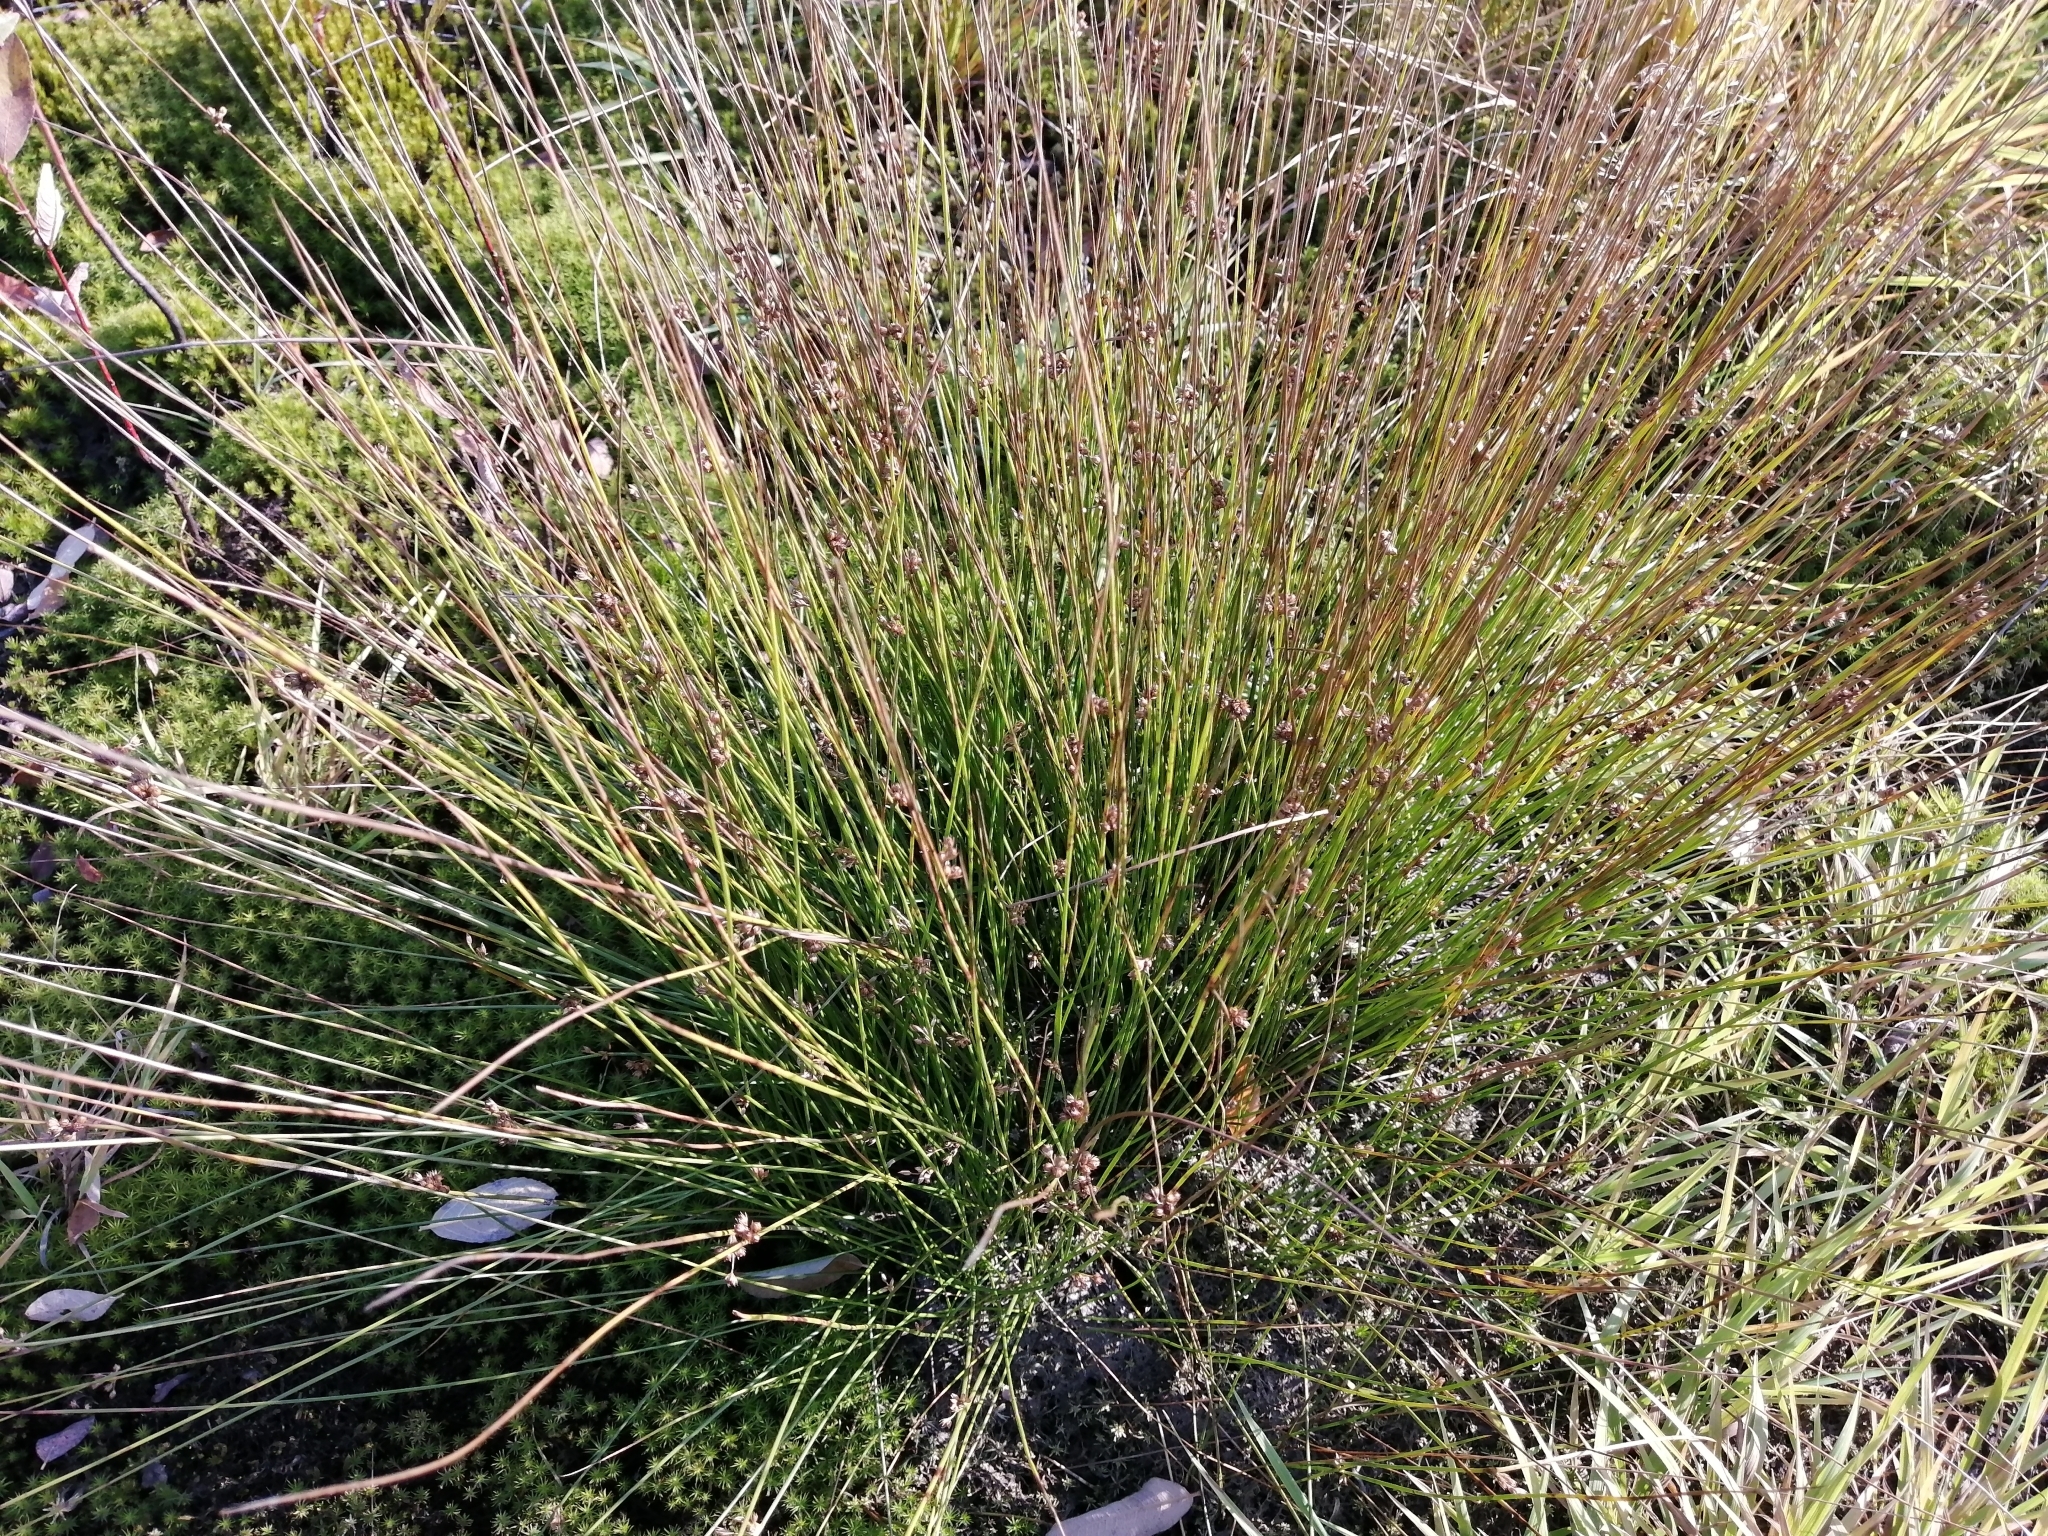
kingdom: Plantae
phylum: Tracheophyta
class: Liliopsida
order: Poales
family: Juncaceae
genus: Juncus
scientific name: Juncus compressus
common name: Round-fruited rush
